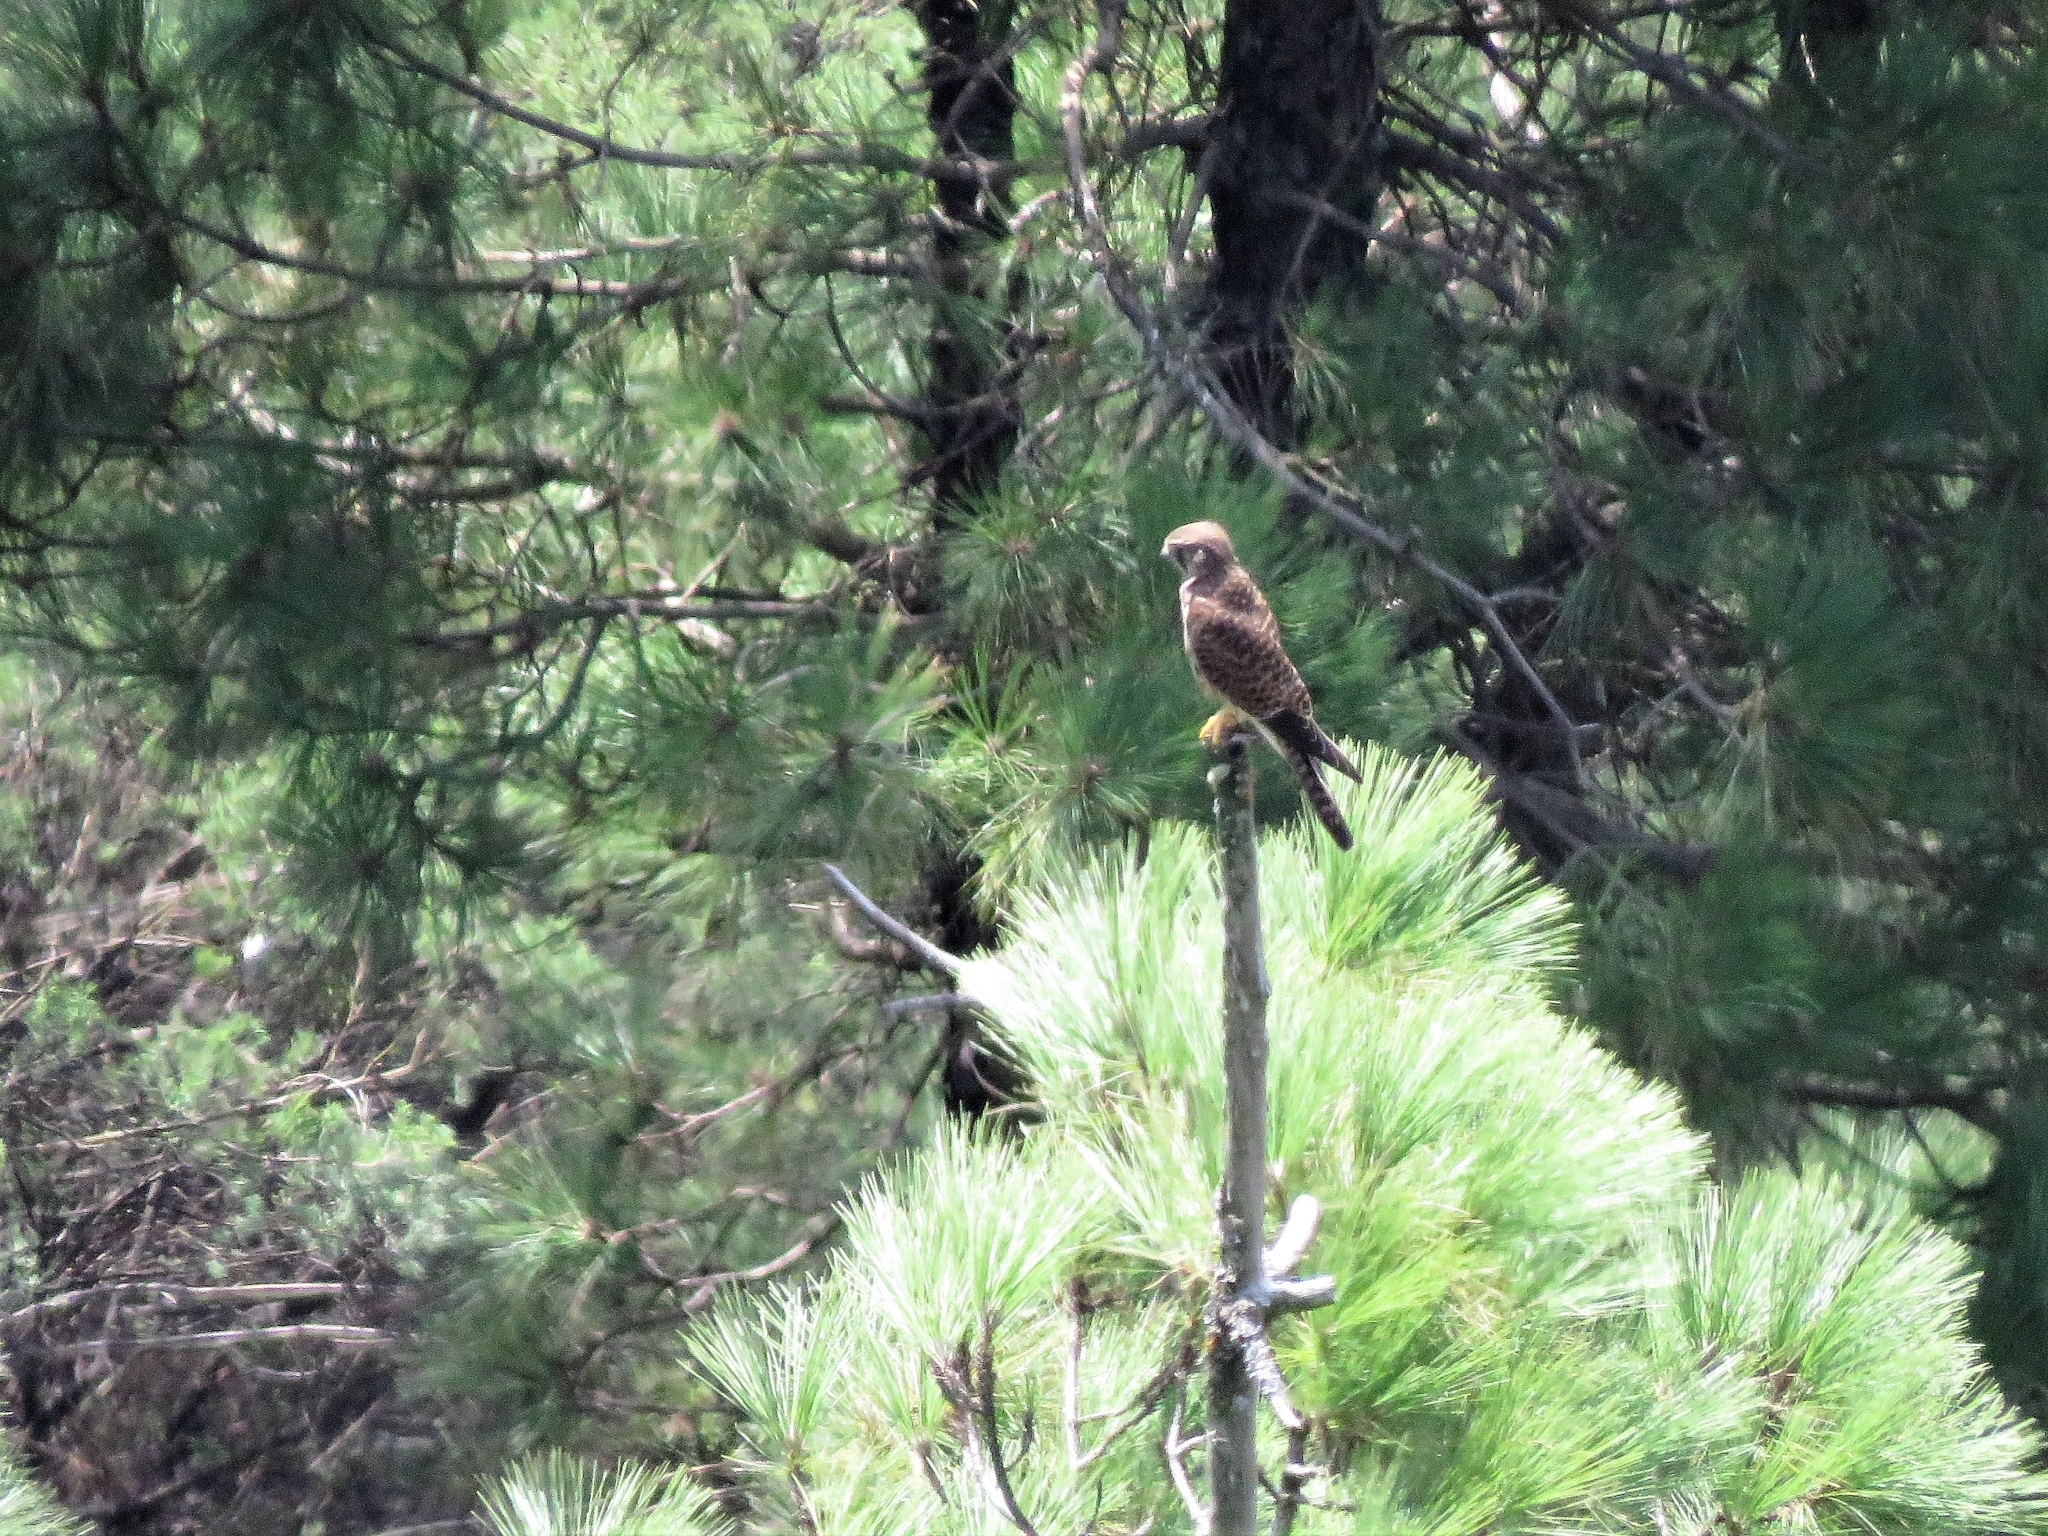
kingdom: Animalia
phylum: Chordata
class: Aves
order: Falconiformes
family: Falconidae
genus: Falco
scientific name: Falco tinnunculus
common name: Common kestrel
